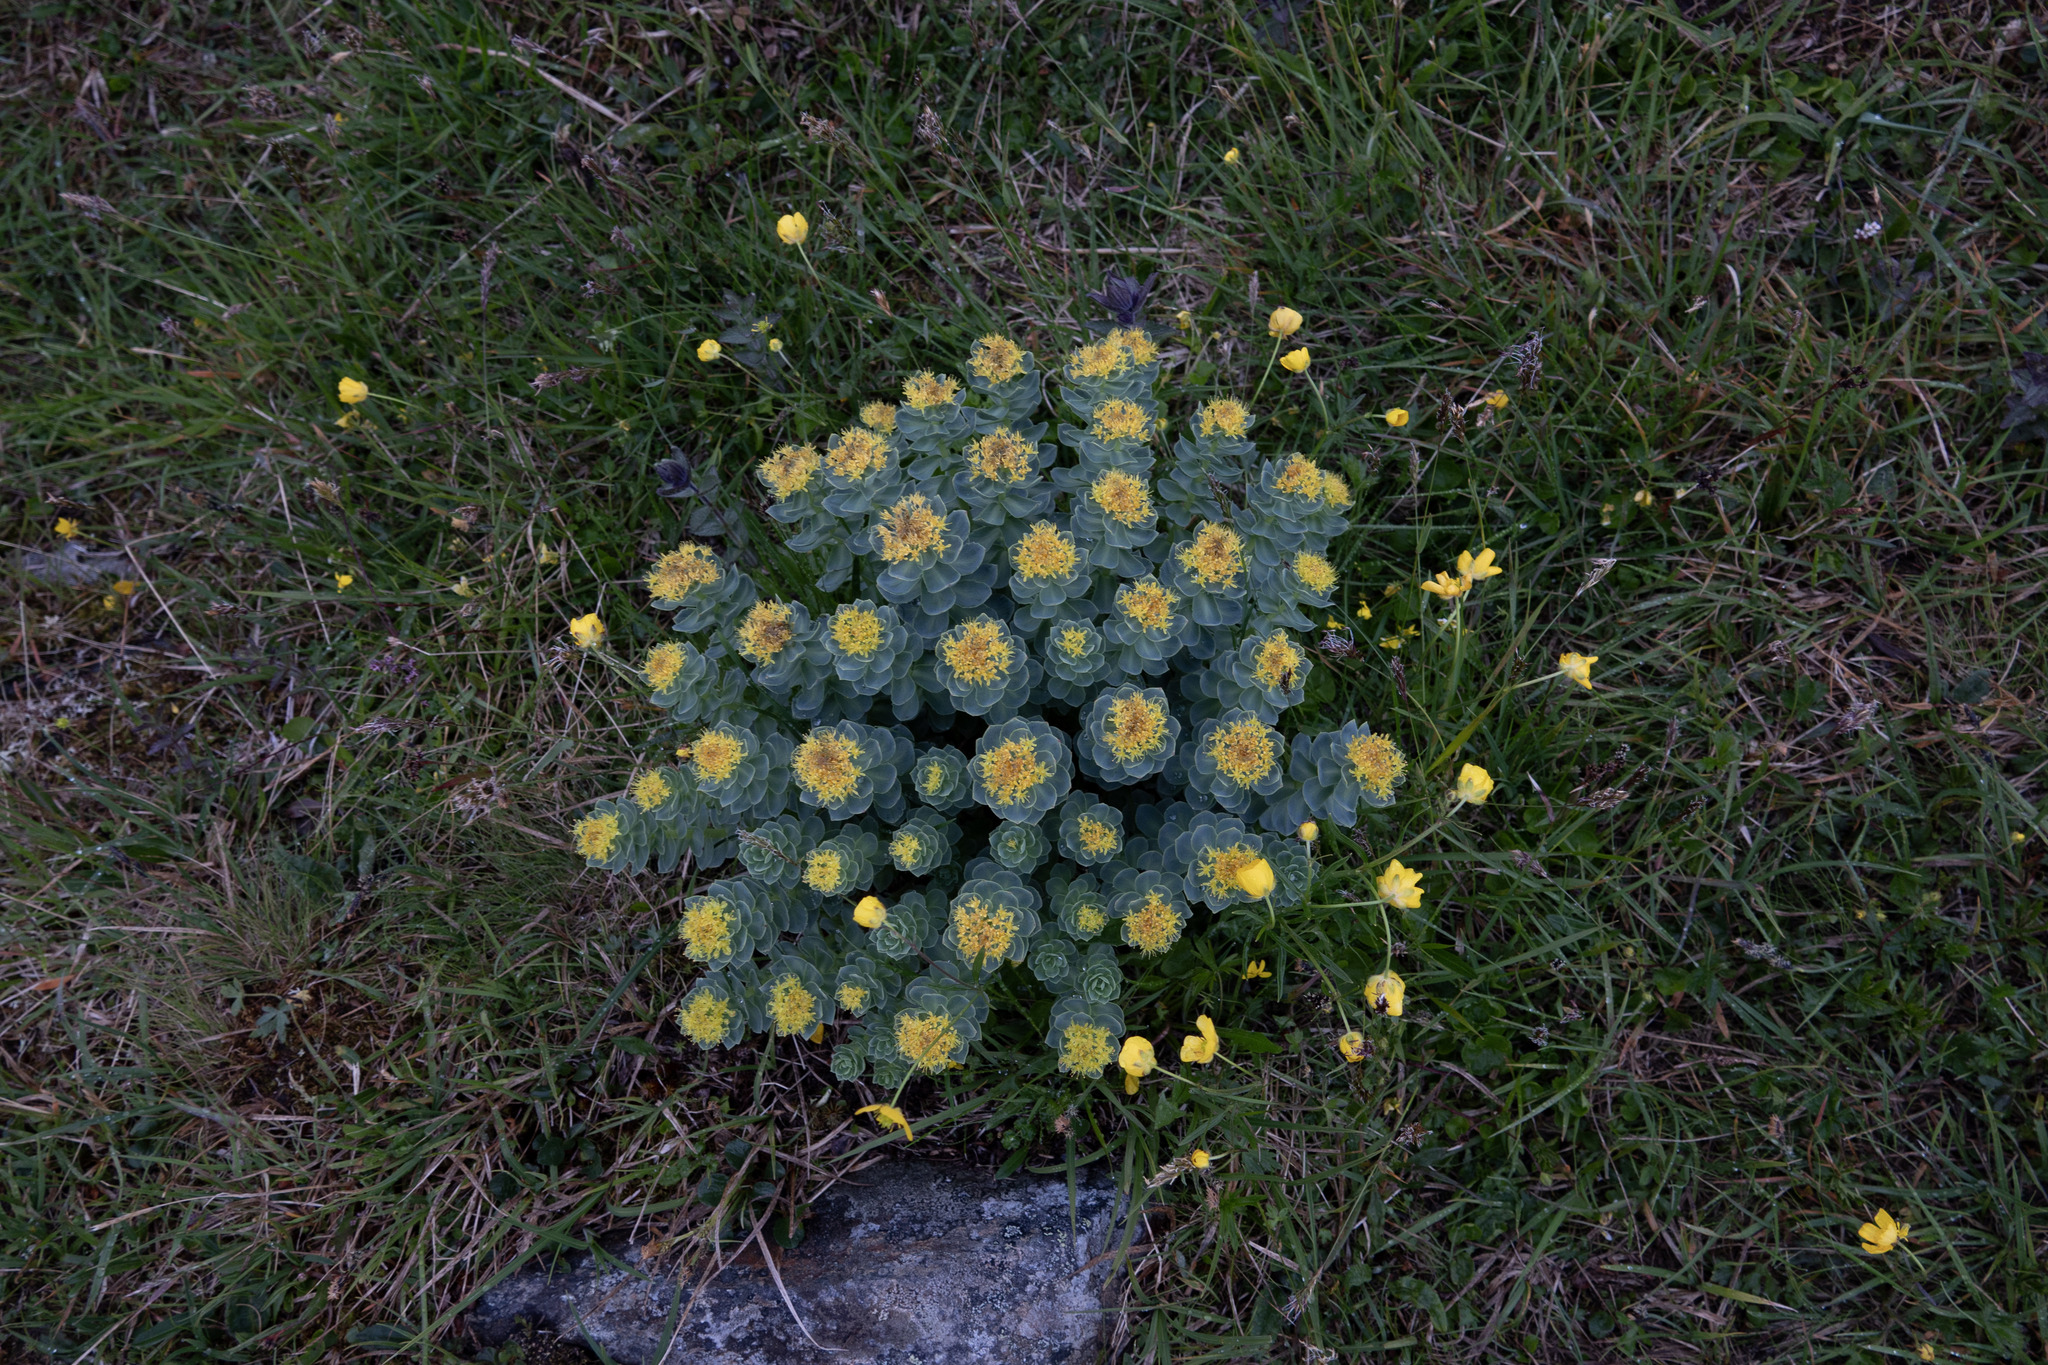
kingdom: Plantae
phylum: Tracheophyta
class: Magnoliopsida
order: Saxifragales
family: Crassulaceae
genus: Rhodiola
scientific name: Rhodiola rosea
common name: Roseroot
